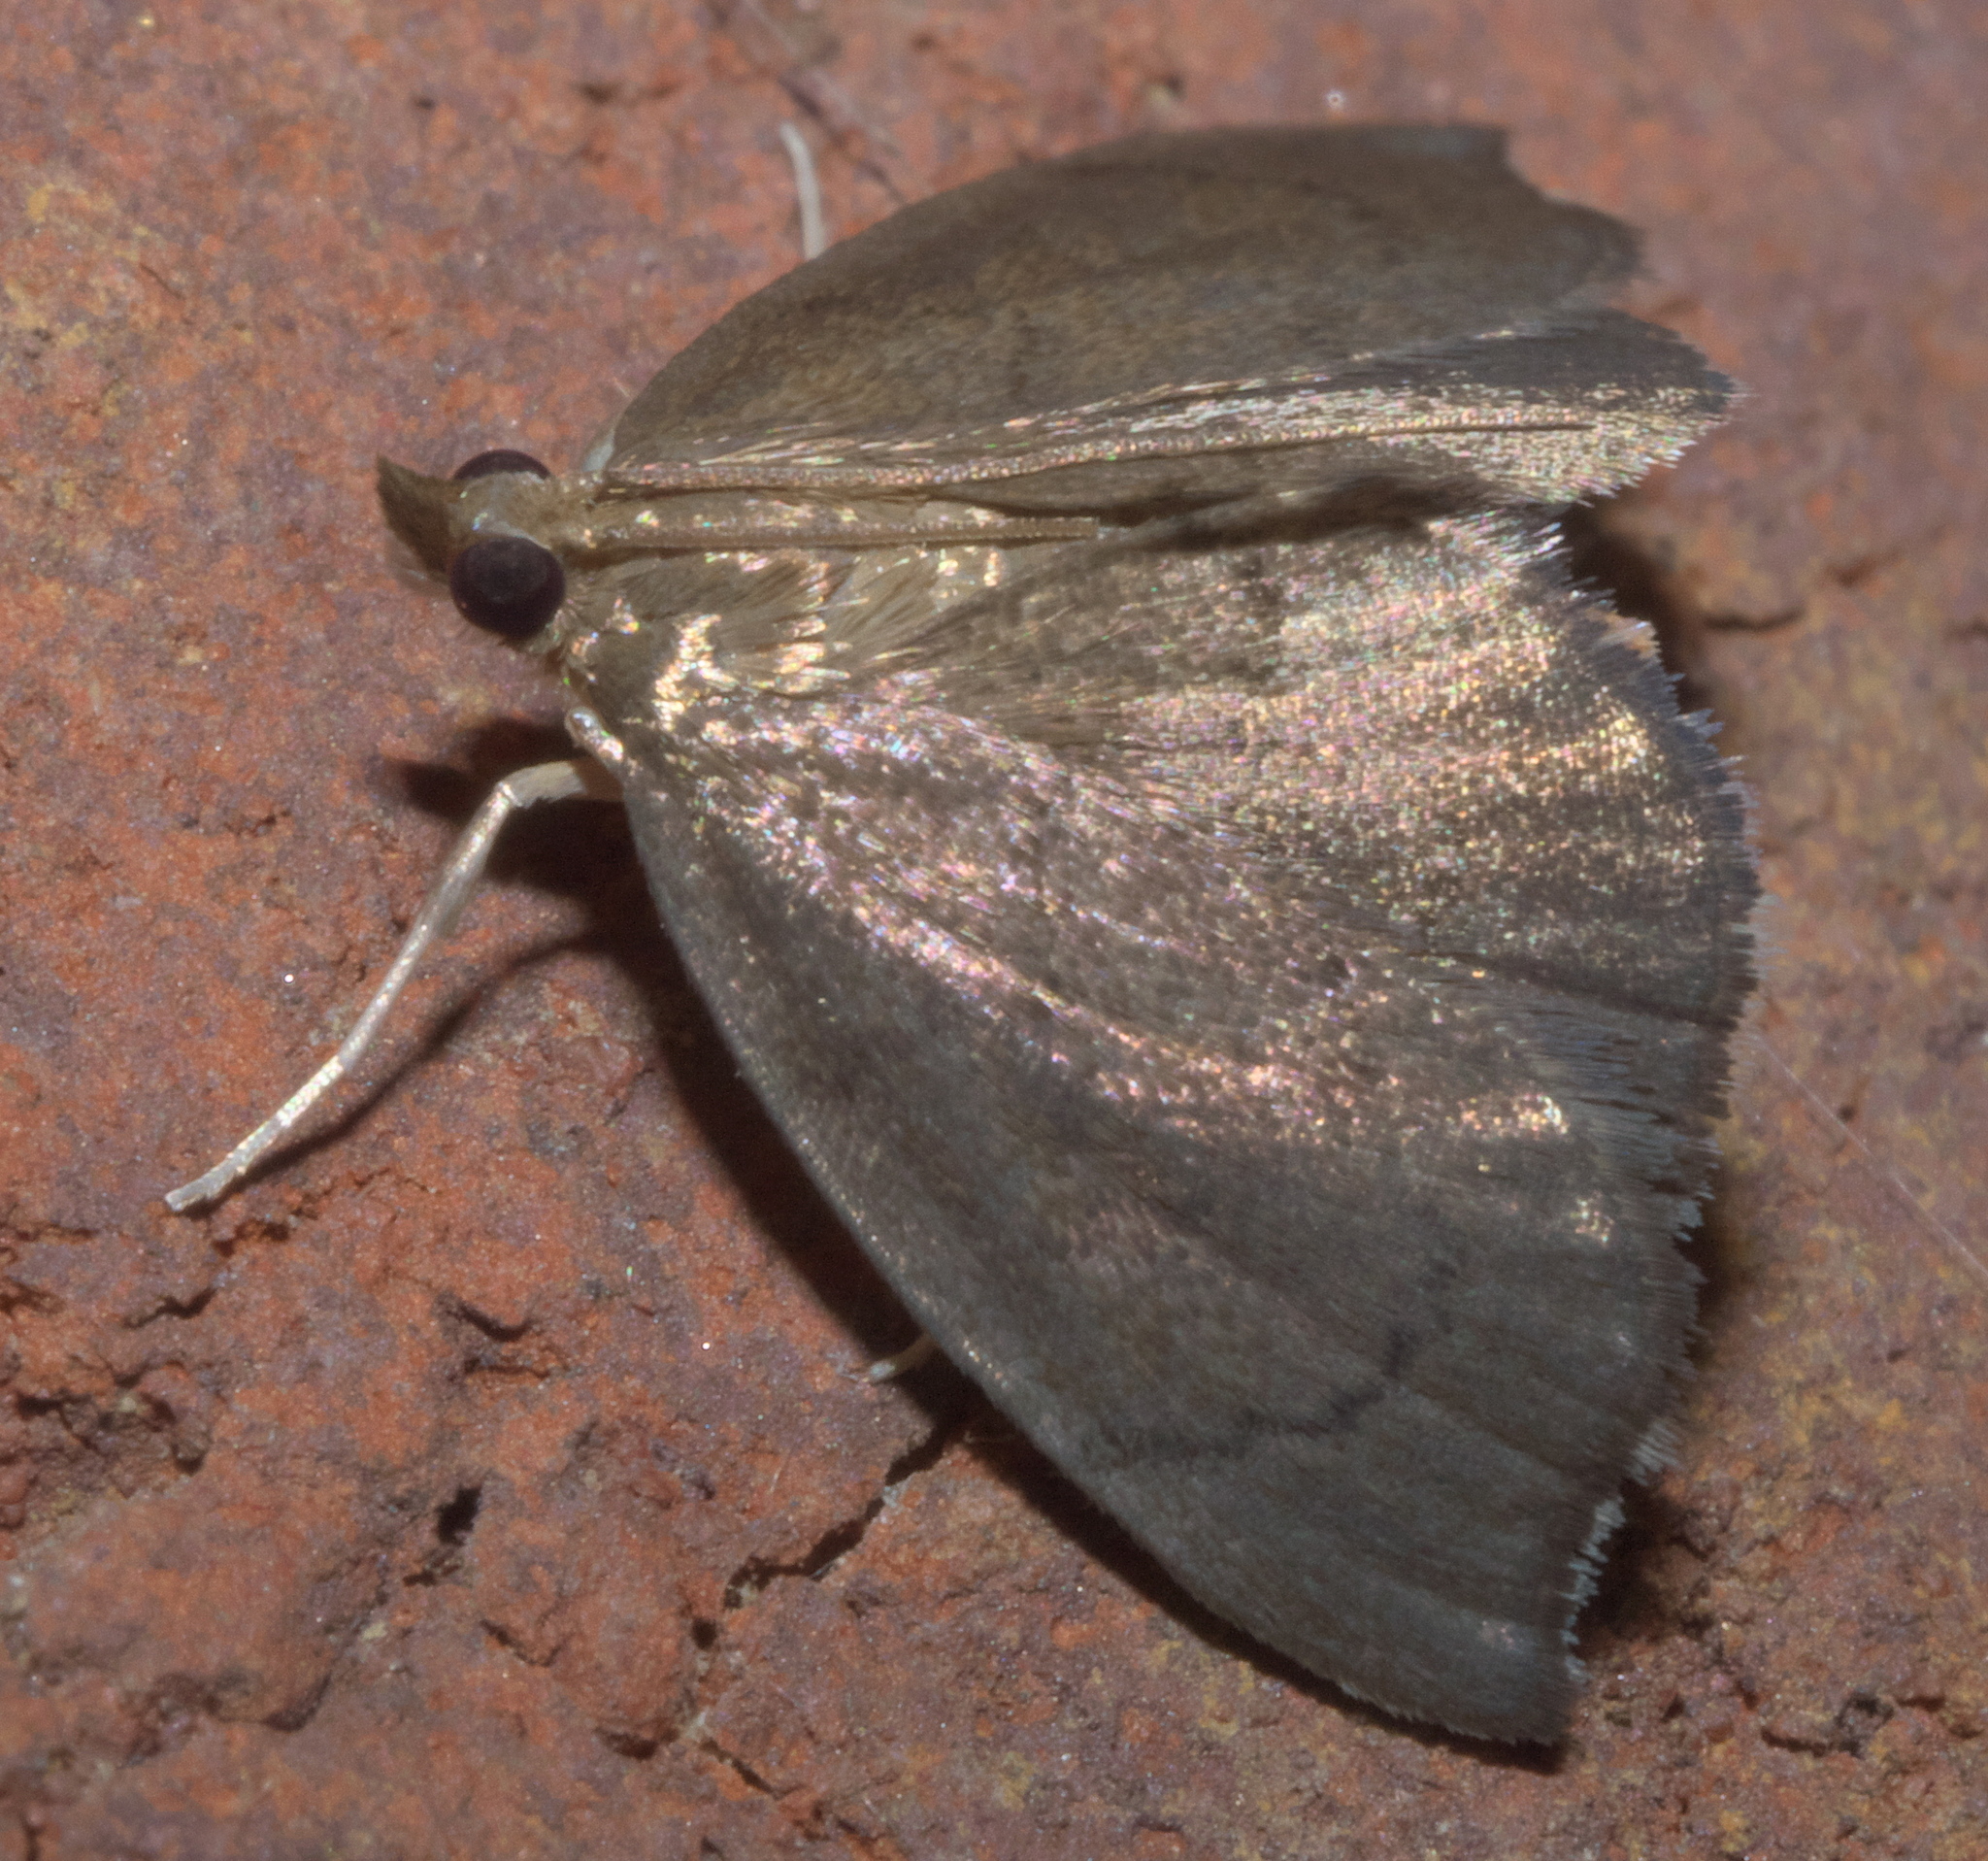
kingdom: Animalia
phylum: Arthropoda
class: Insecta
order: Lepidoptera
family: Crambidae
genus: Perispasta
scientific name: Perispasta caeculalis
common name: Titian peale's moth
